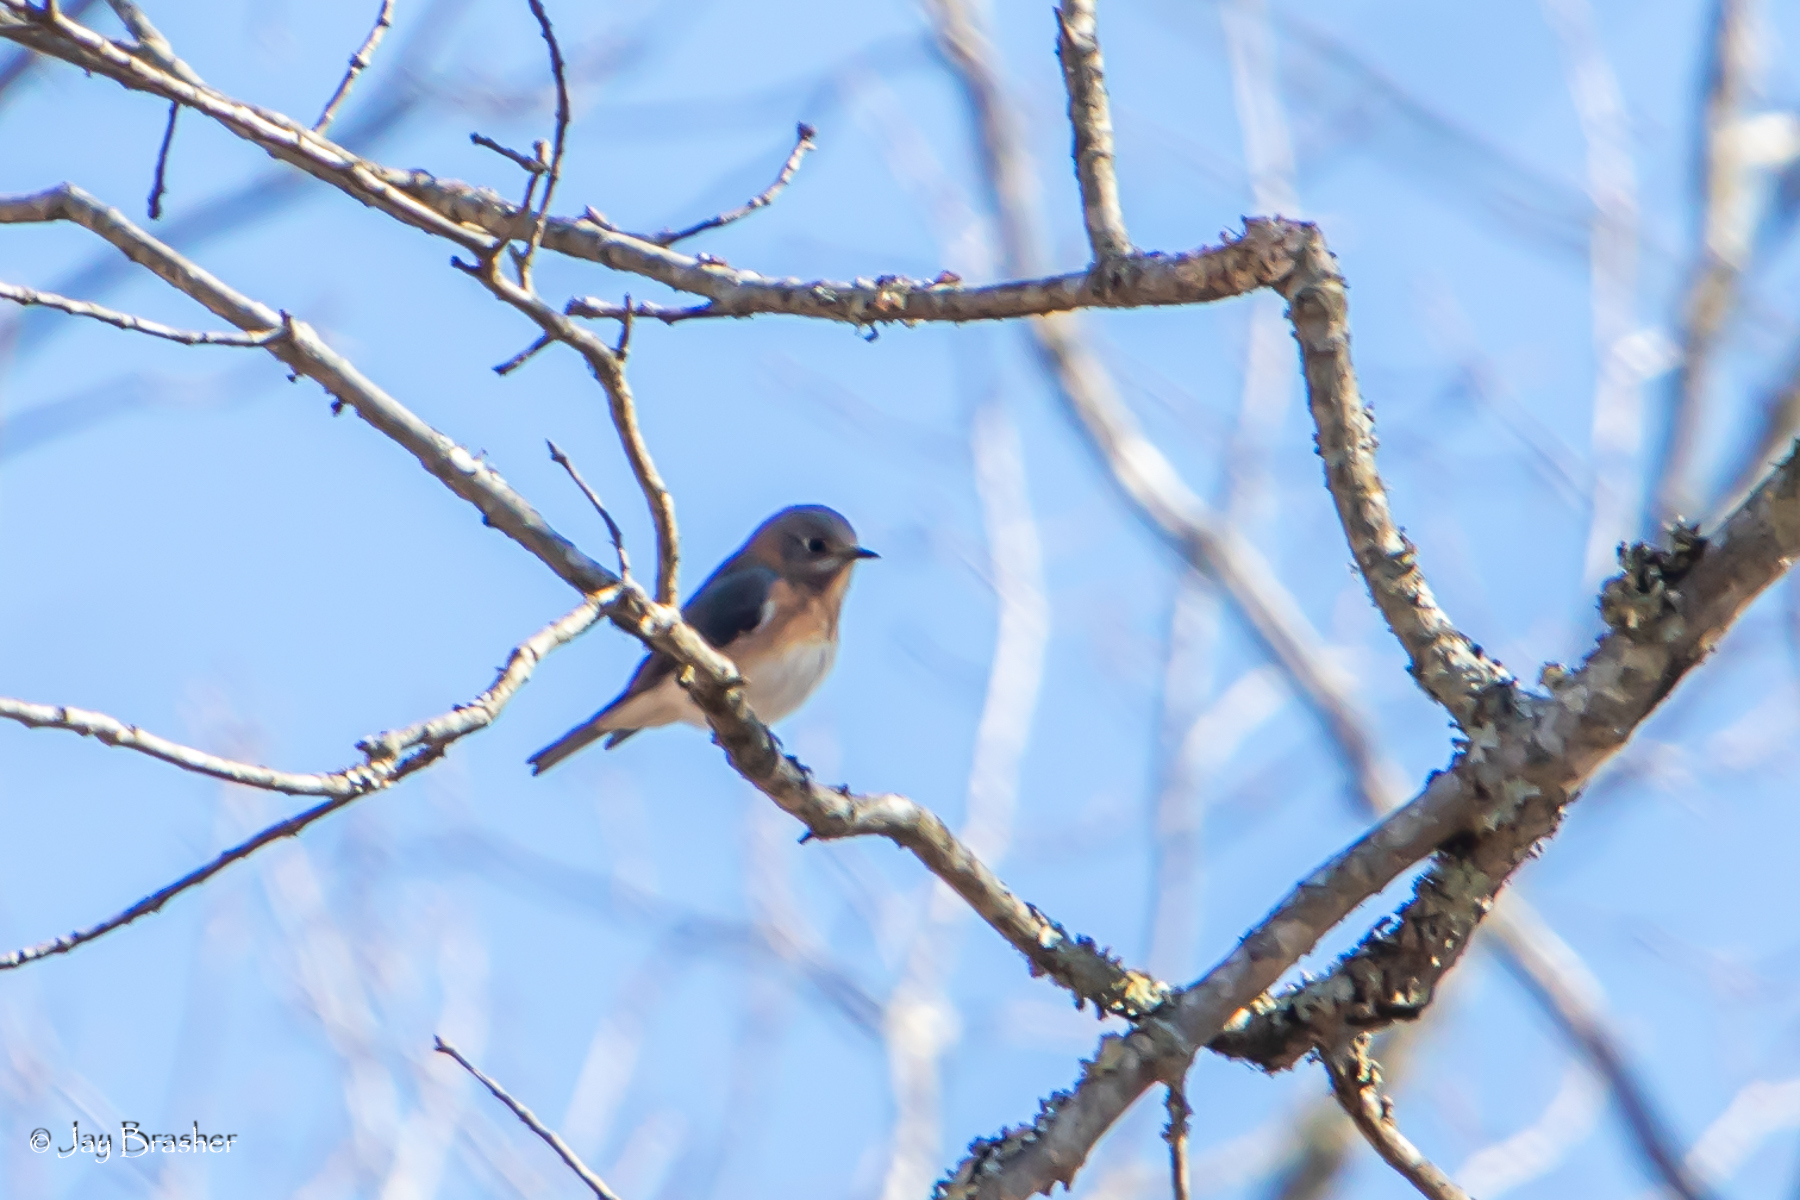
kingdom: Animalia
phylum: Chordata
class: Aves
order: Passeriformes
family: Turdidae
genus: Sialia
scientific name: Sialia sialis
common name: Eastern bluebird
